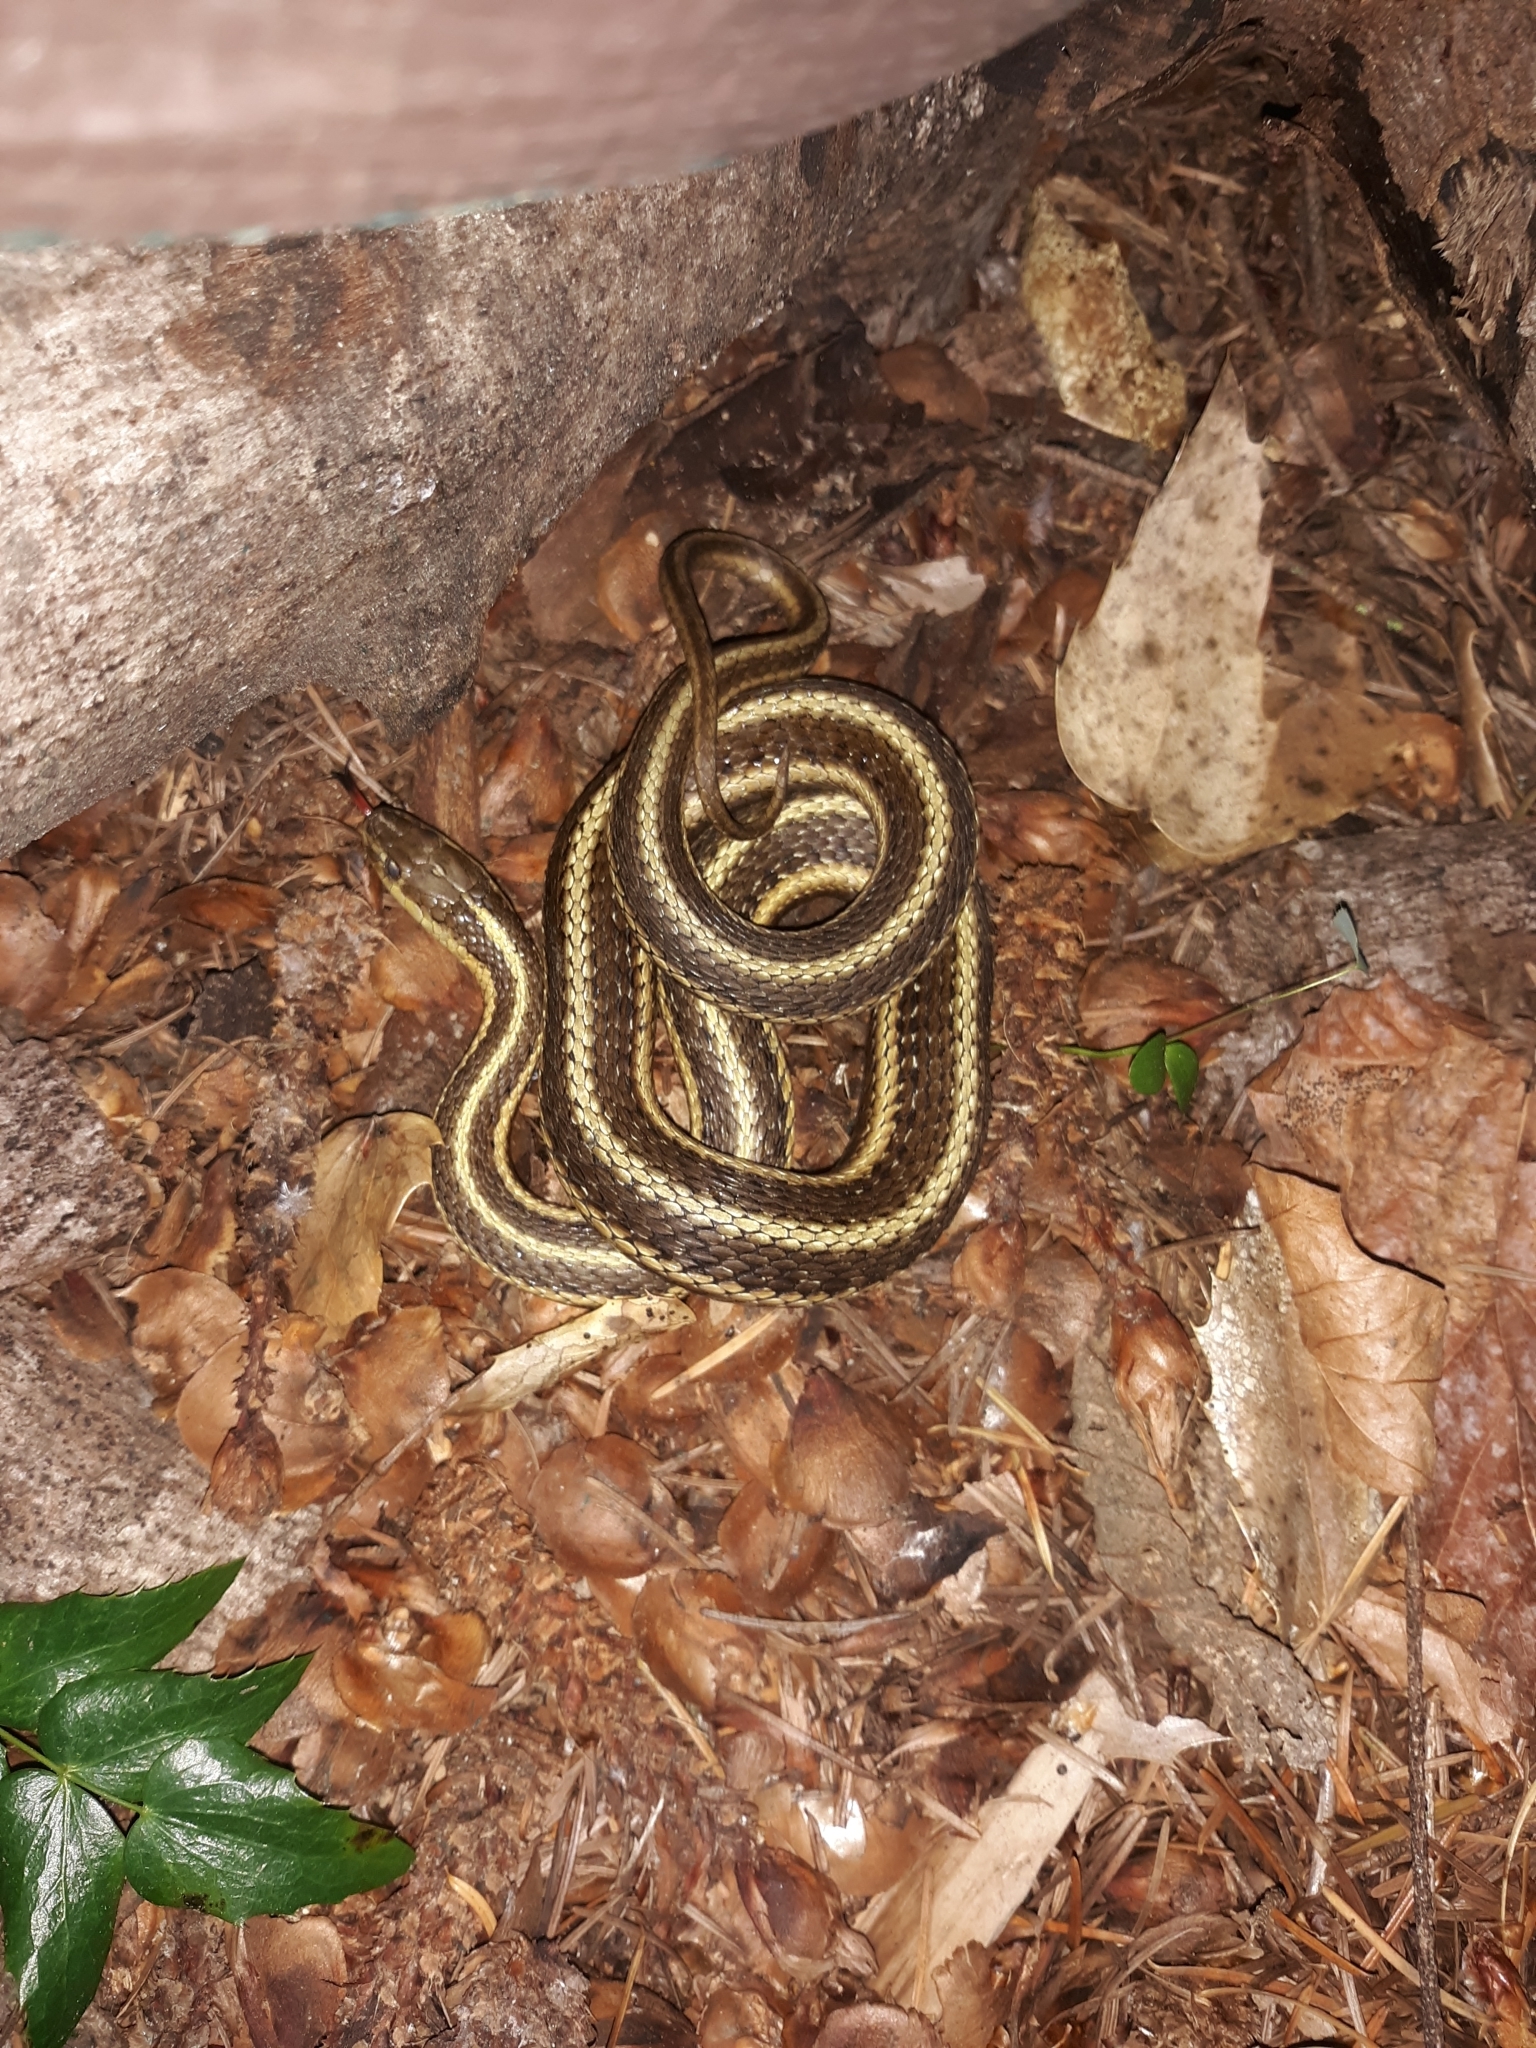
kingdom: Animalia
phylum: Chordata
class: Squamata
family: Colubridae
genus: Thamnophis
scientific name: Thamnophis ordinoides
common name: Northwestern garter snake
